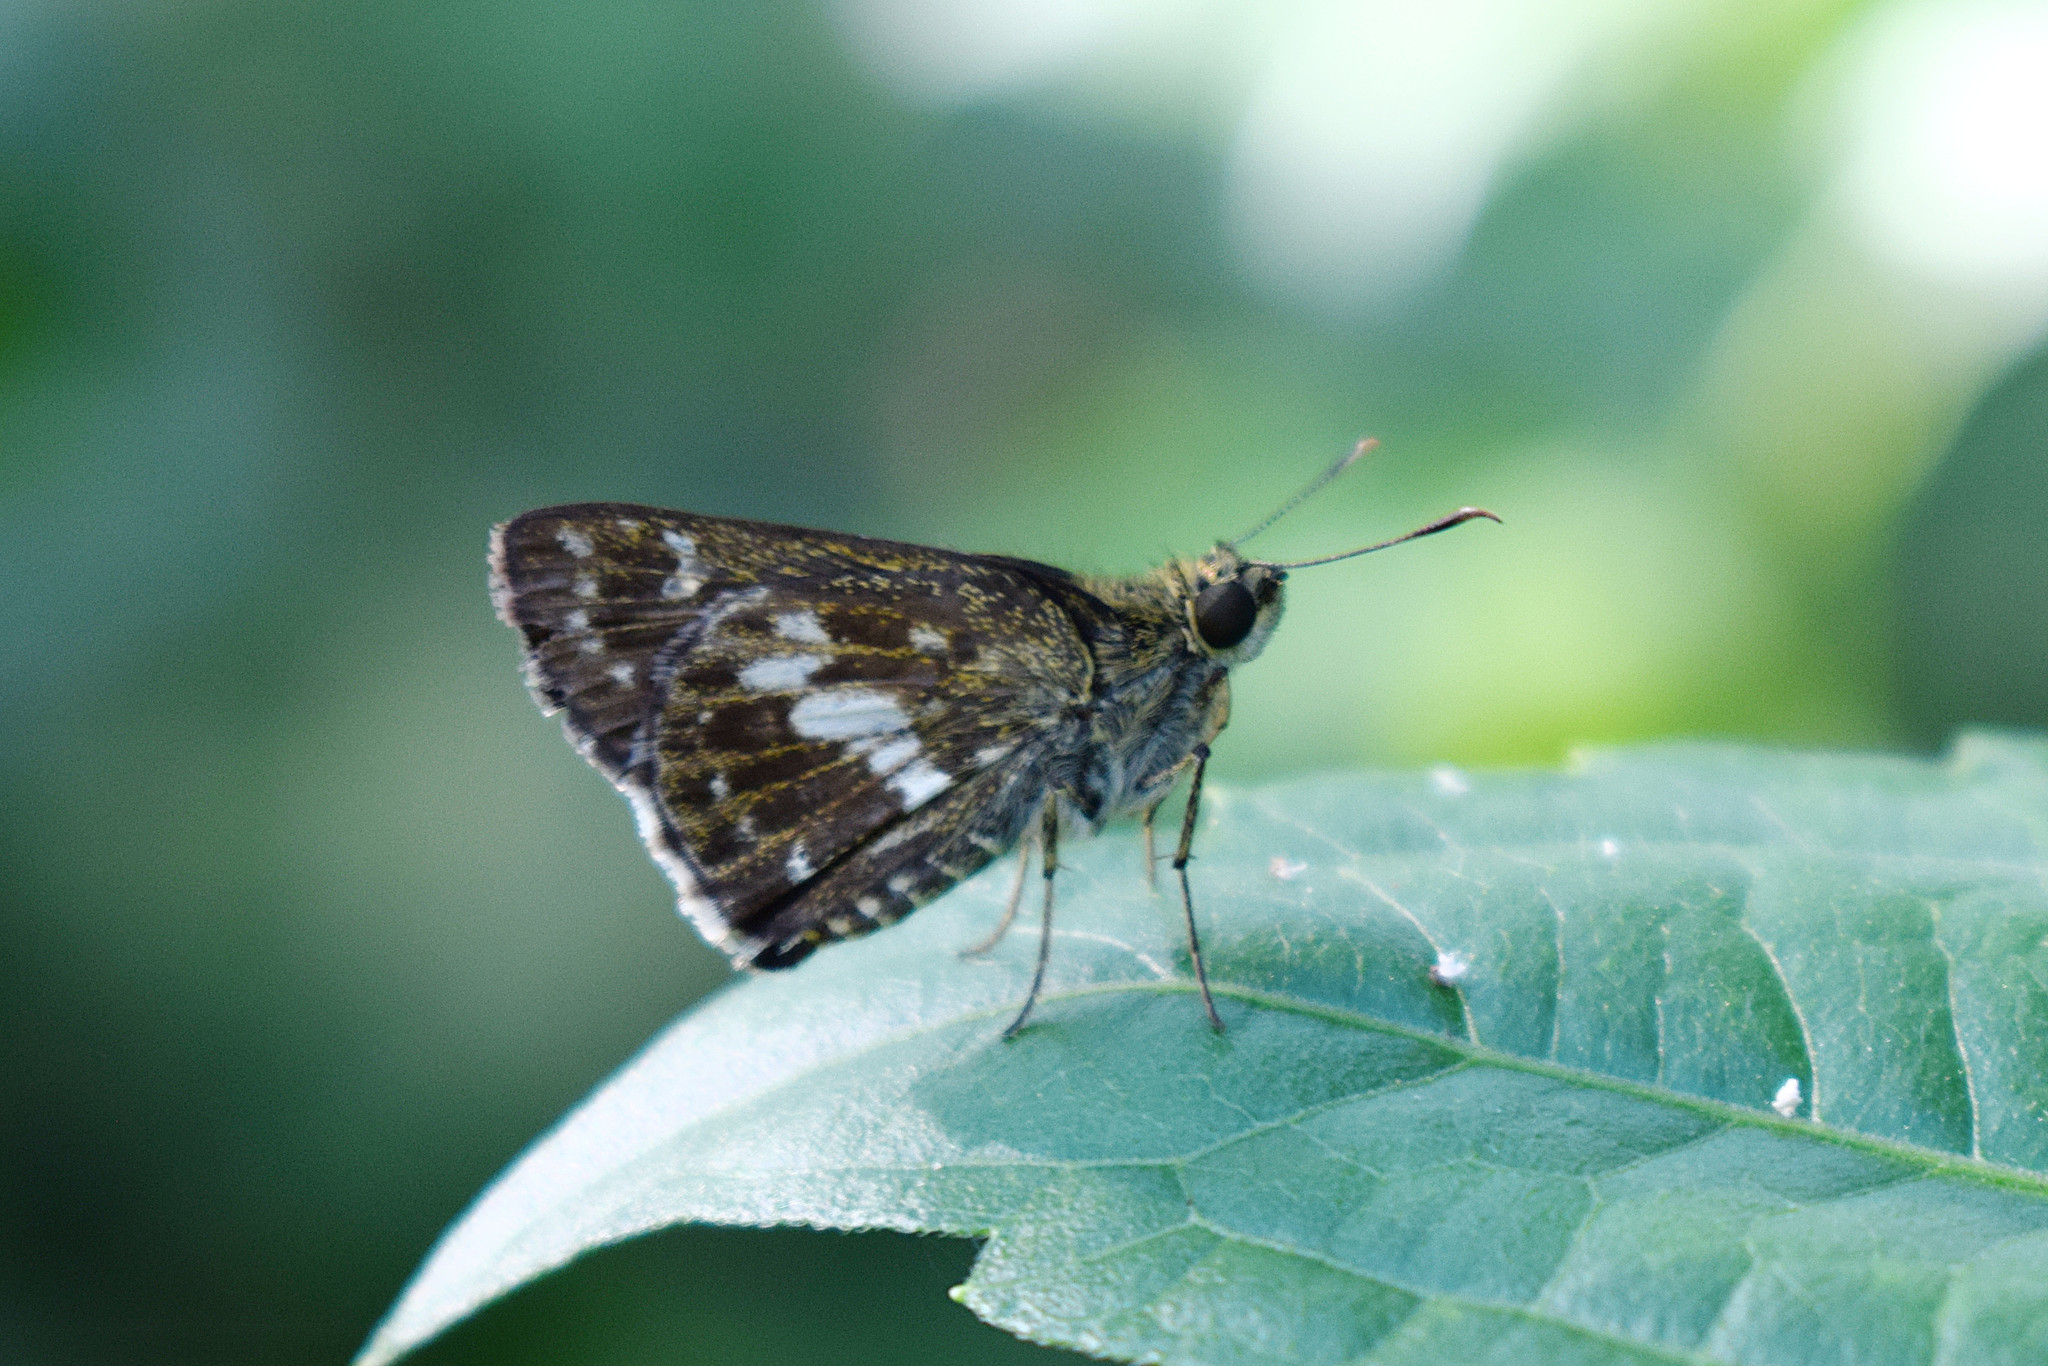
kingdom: Animalia
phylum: Arthropoda
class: Insecta
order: Lepidoptera
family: Hesperiidae
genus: Halpe
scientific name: Halpe porus
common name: Moore's ace
